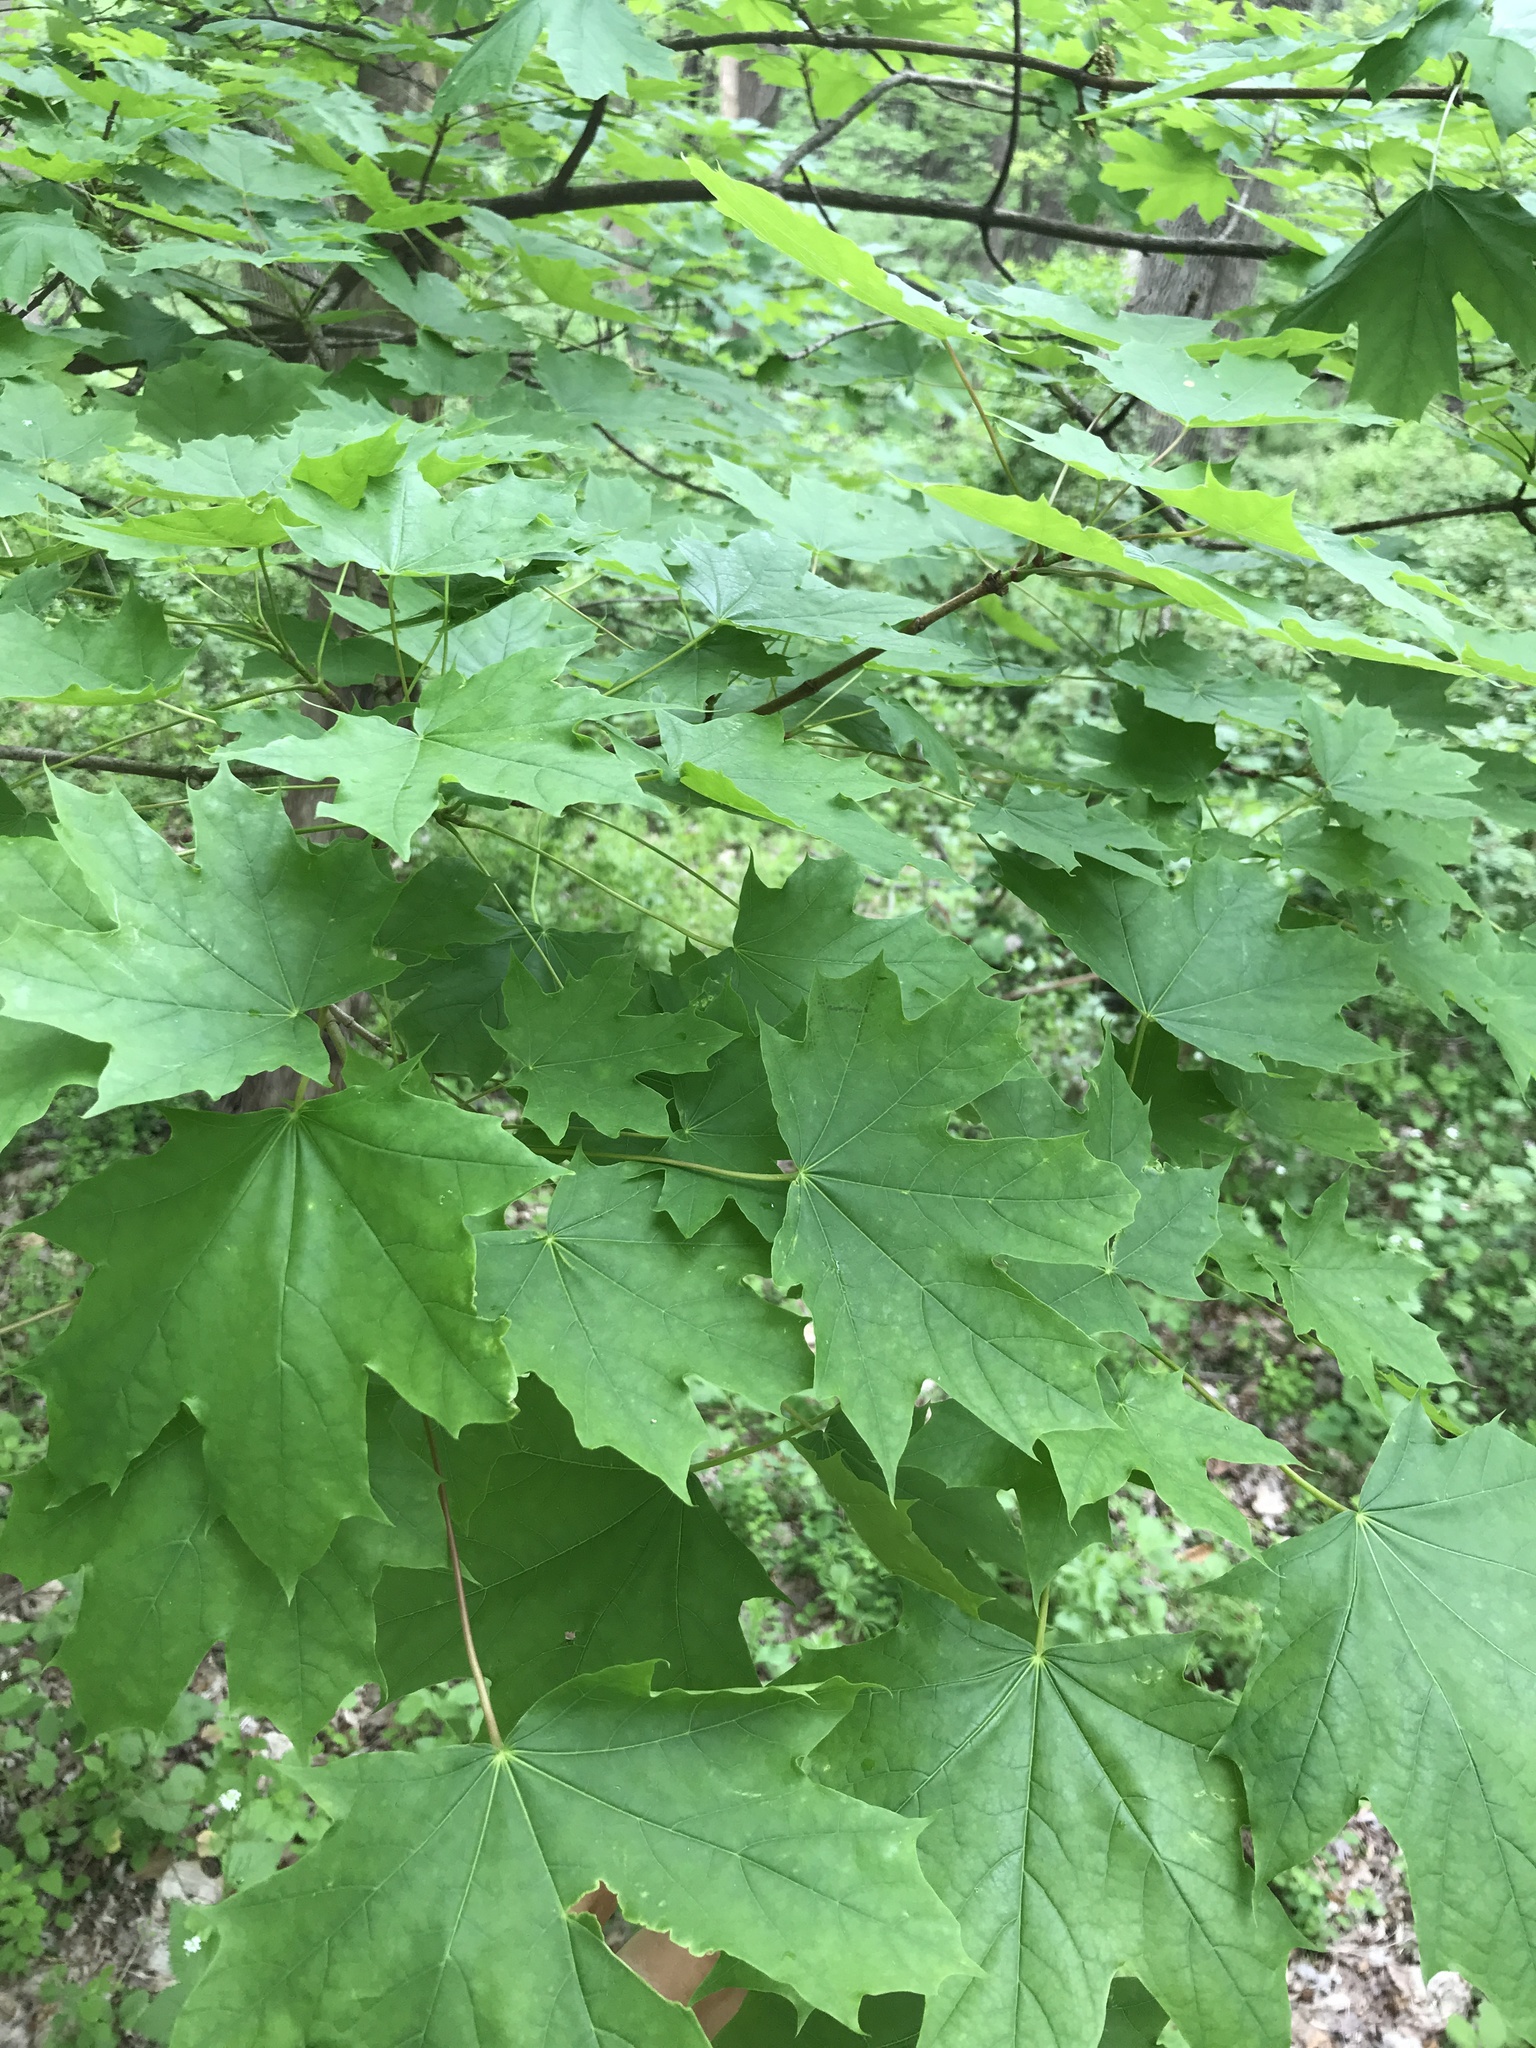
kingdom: Plantae
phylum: Tracheophyta
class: Magnoliopsida
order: Sapindales
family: Sapindaceae
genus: Acer
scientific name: Acer platanoides
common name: Norway maple
